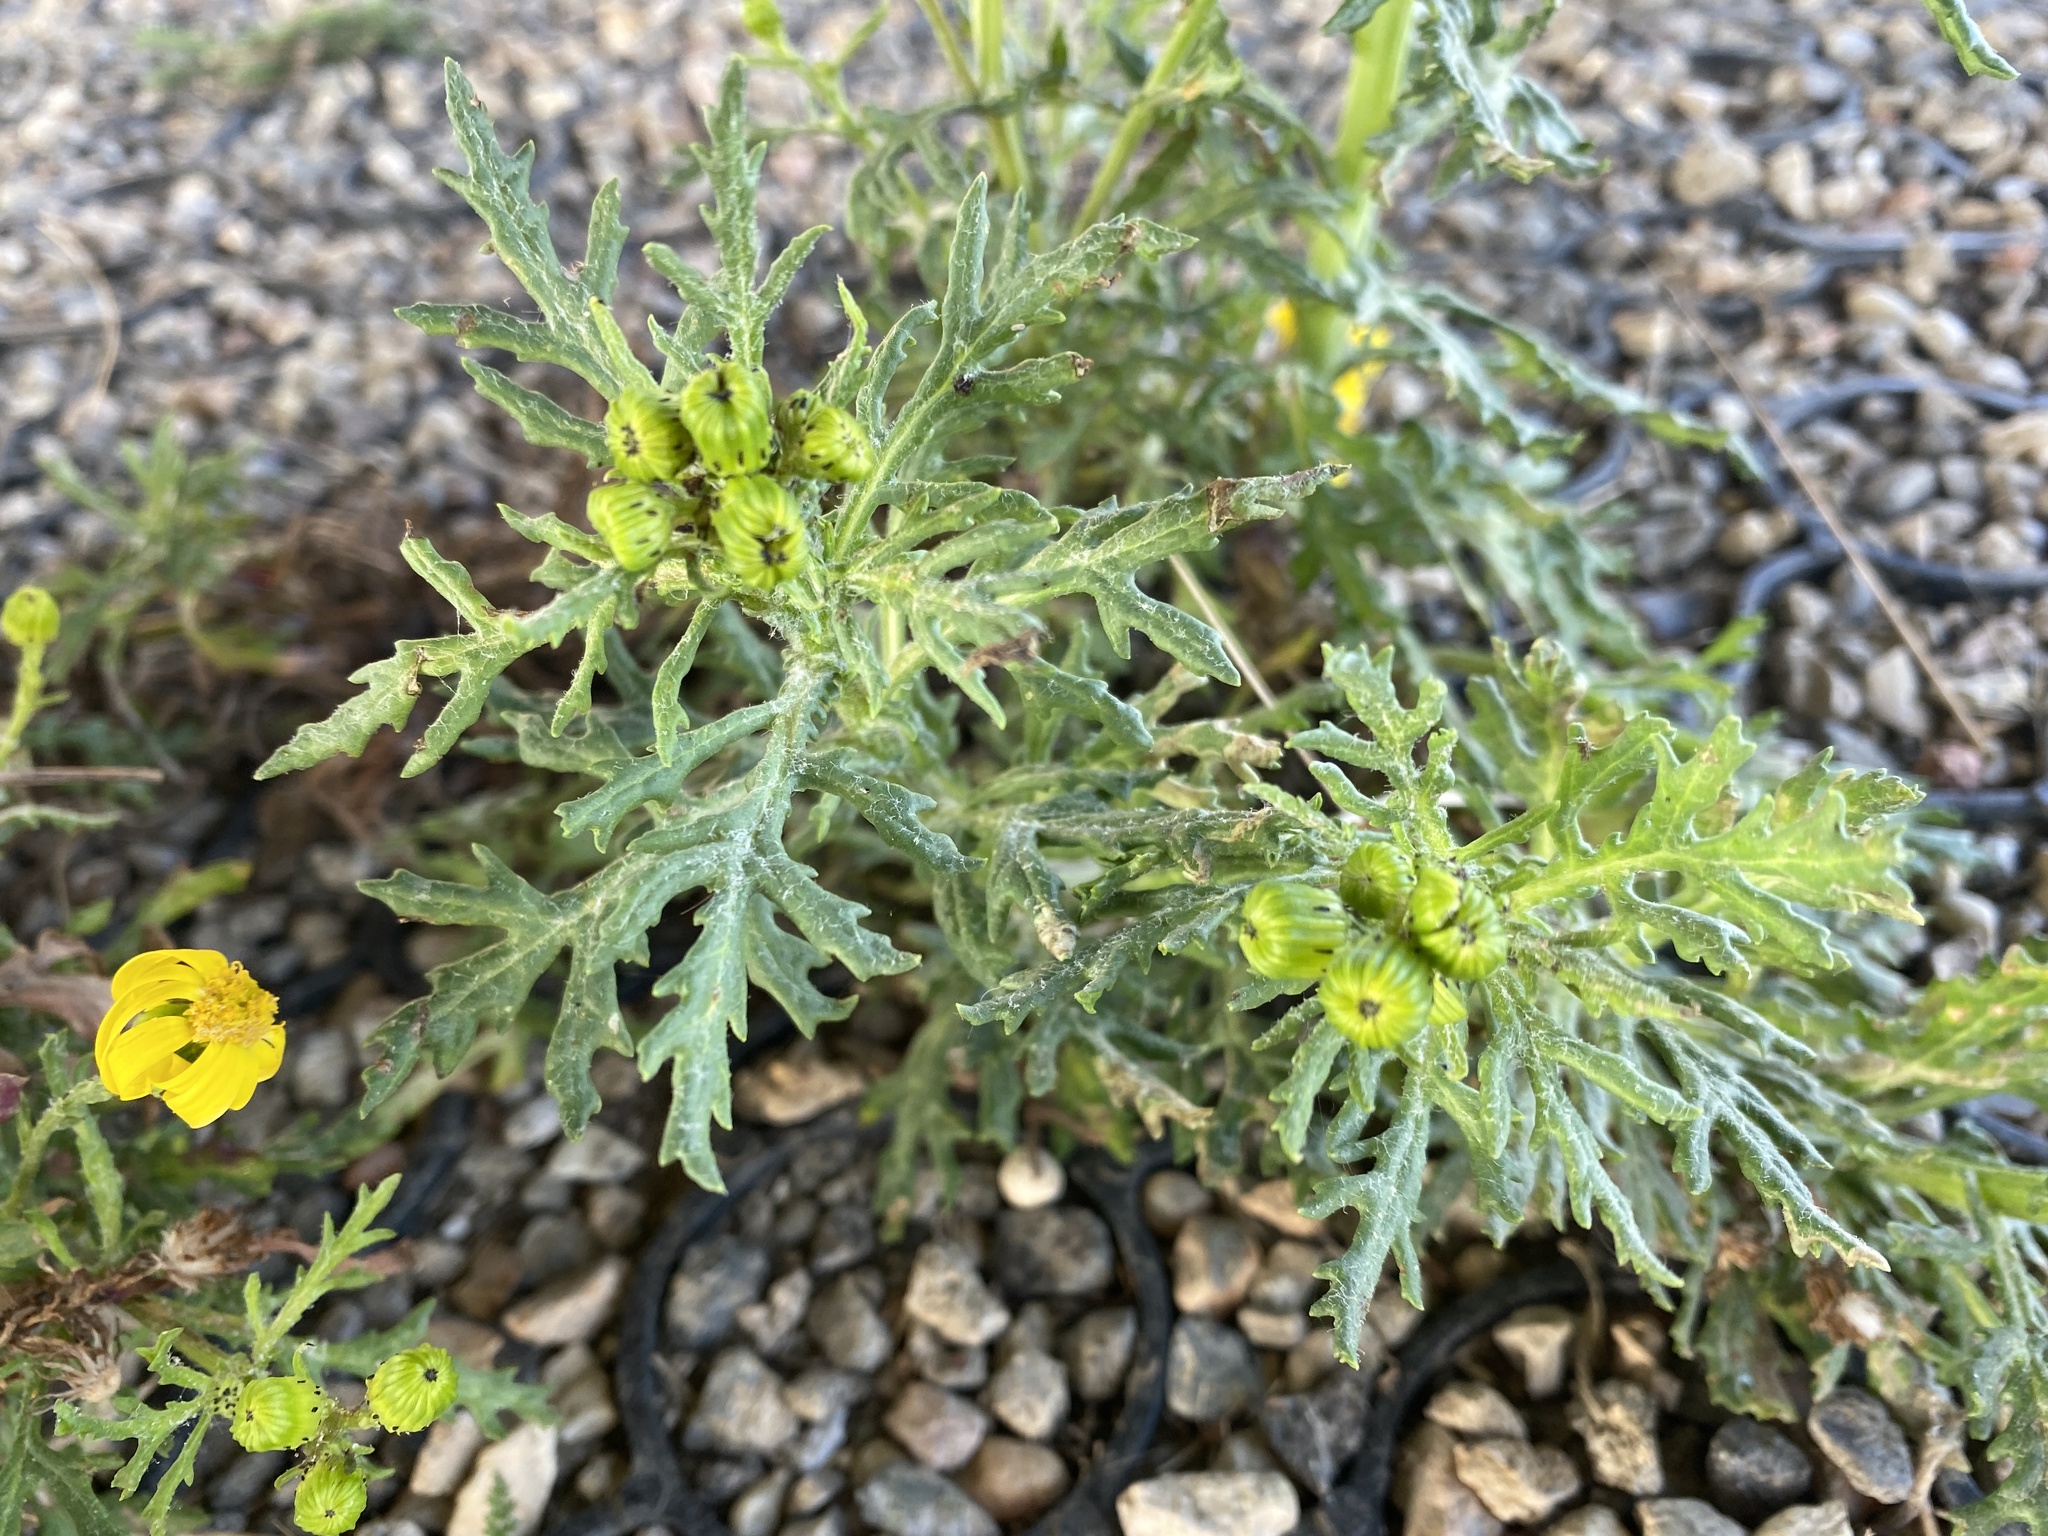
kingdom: Plantae
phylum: Tracheophyta
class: Magnoliopsida
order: Asterales
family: Asteraceae
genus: Senecio
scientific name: Senecio squalidus
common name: Oxford ragwort
